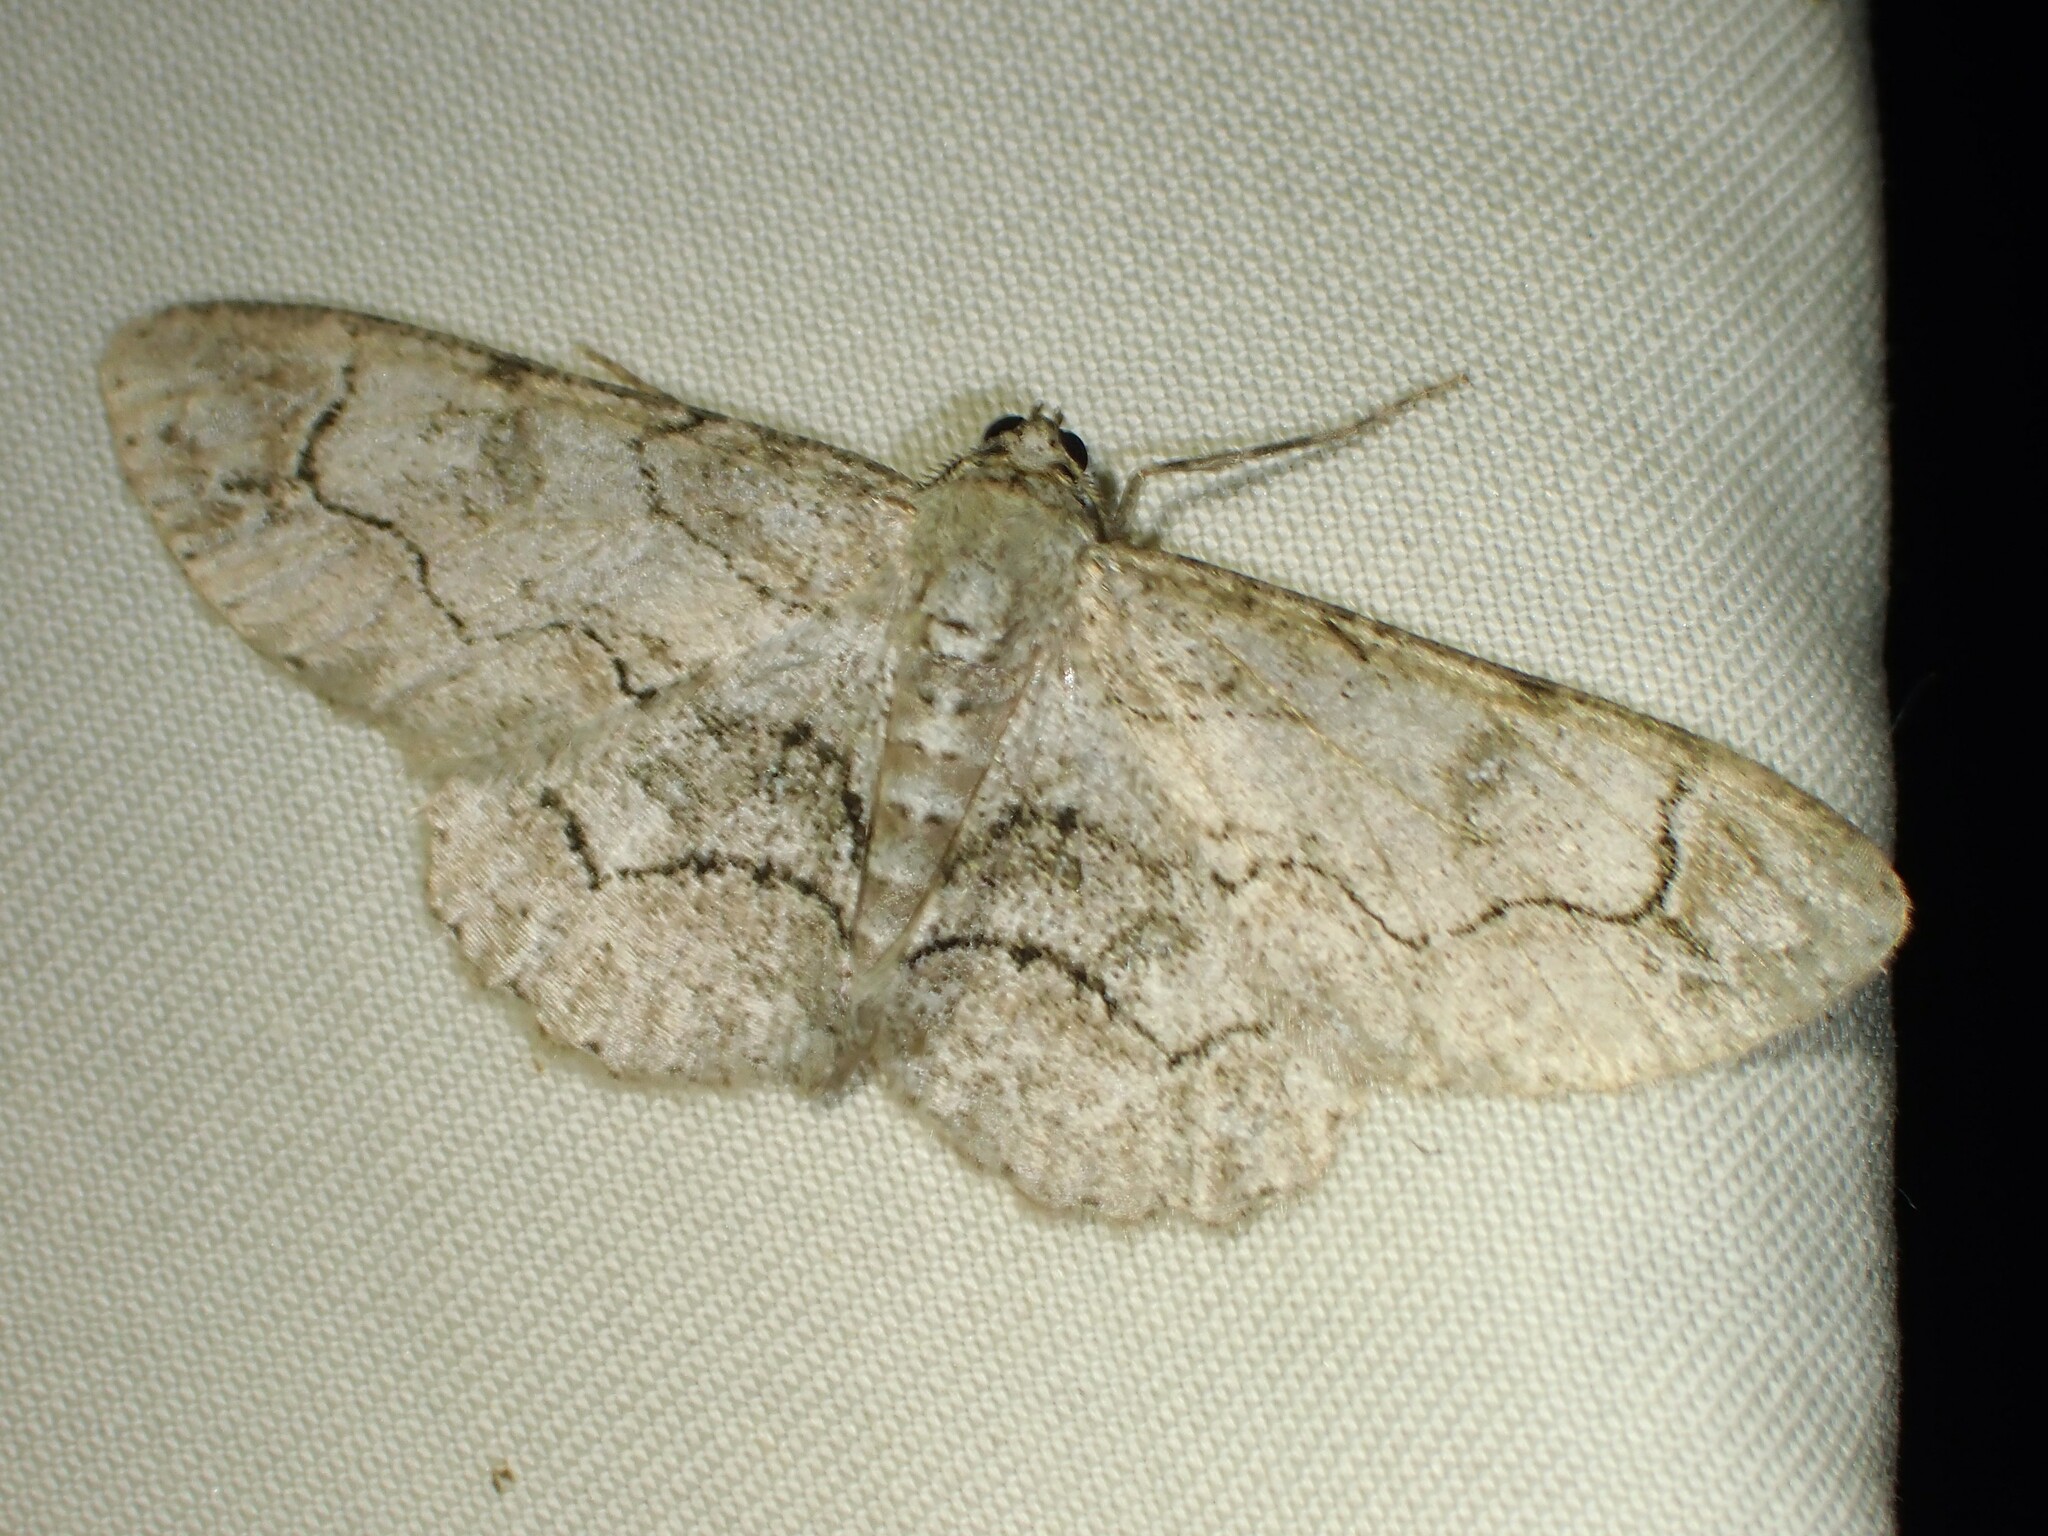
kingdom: Animalia
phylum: Arthropoda
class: Insecta
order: Lepidoptera
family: Geometridae
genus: Iridopsis
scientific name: Iridopsis larvaria
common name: Bent-line gray
